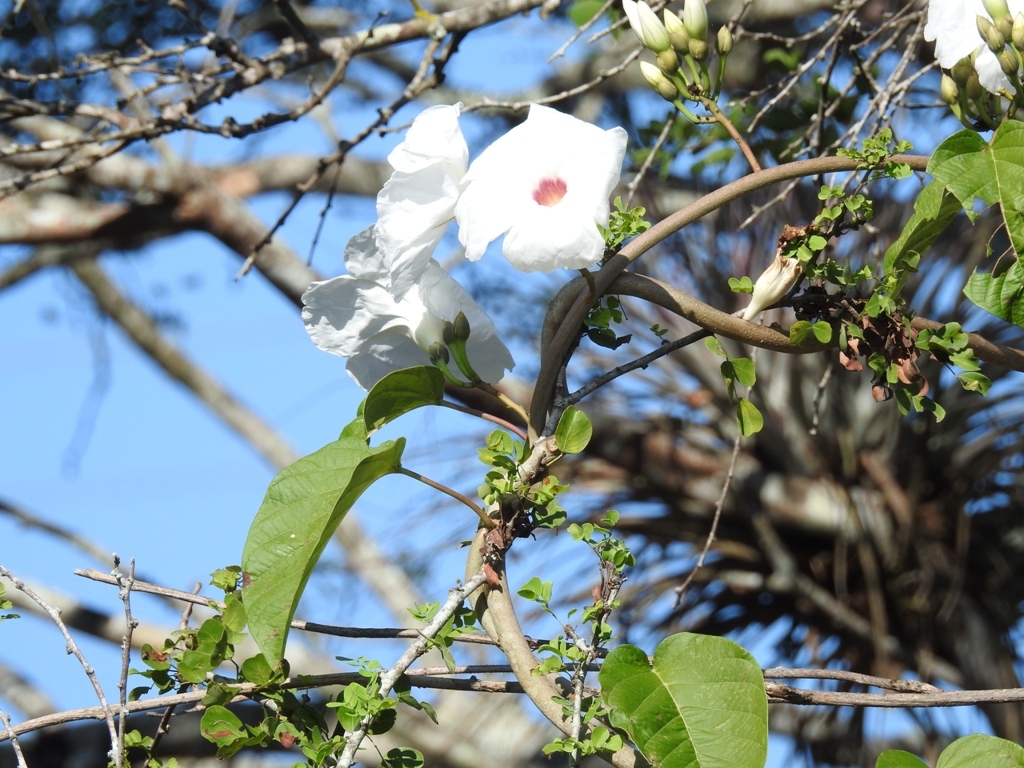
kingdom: Plantae
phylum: Tracheophyta
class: Magnoliopsida
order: Solanales
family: Convolvulaceae
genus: Ipomoea
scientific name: Ipomoea populina
